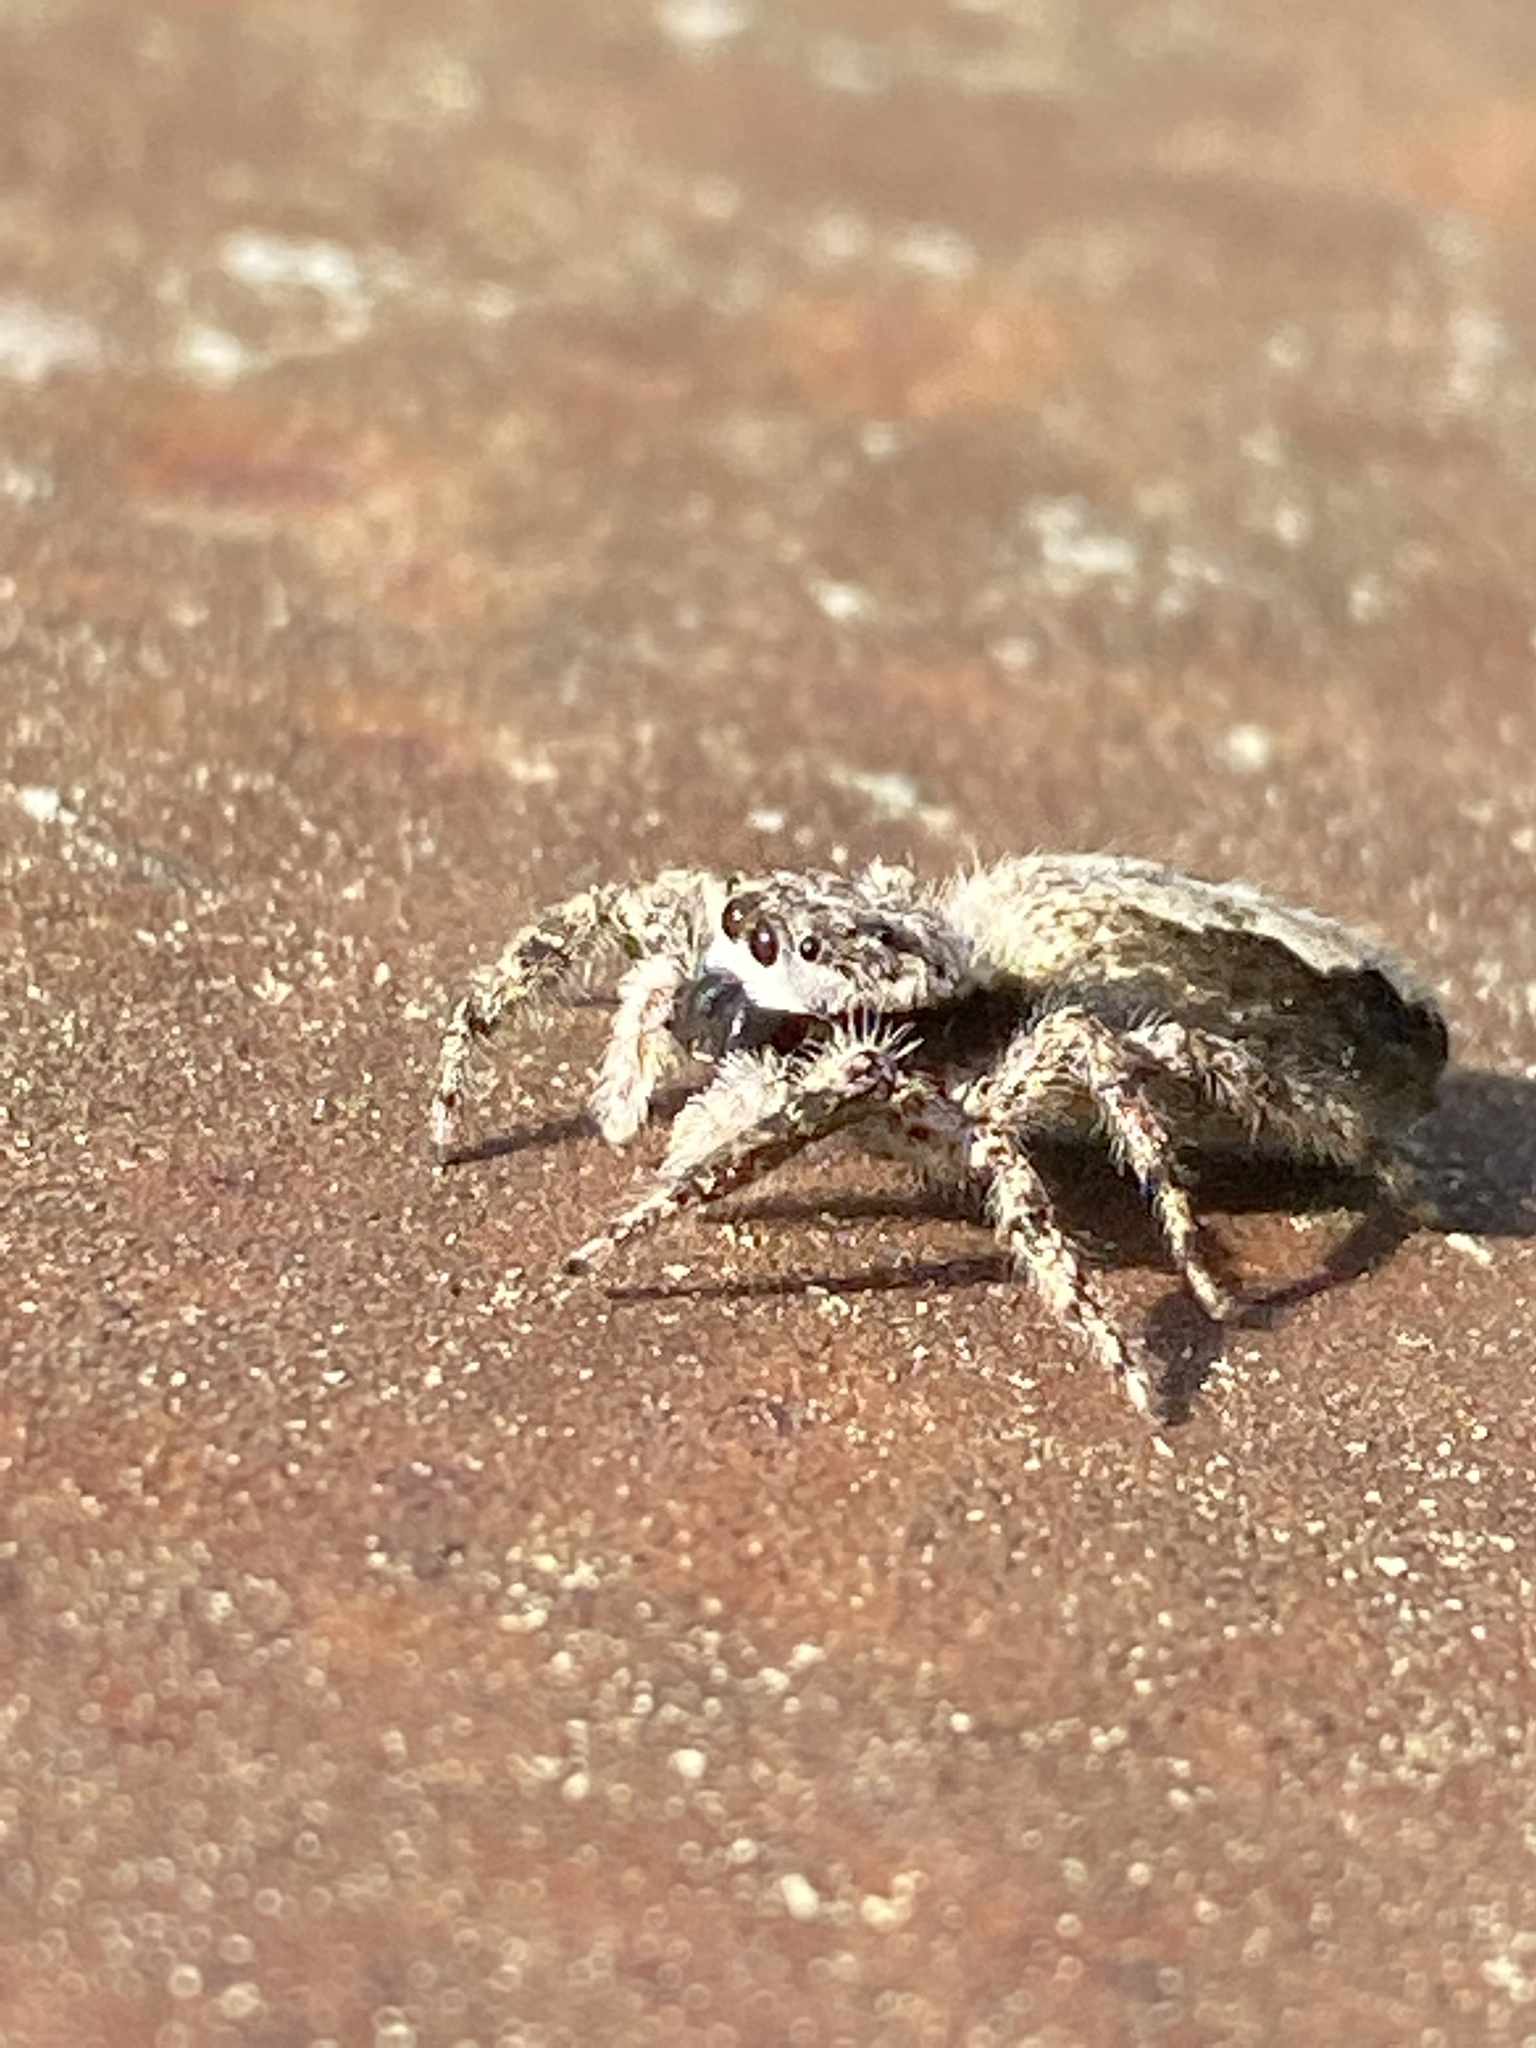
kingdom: Animalia
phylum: Arthropoda
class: Arachnida
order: Araneae
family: Salticidae
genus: Platycryptus
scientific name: Platycryptus undatus
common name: Tan jumping spider
